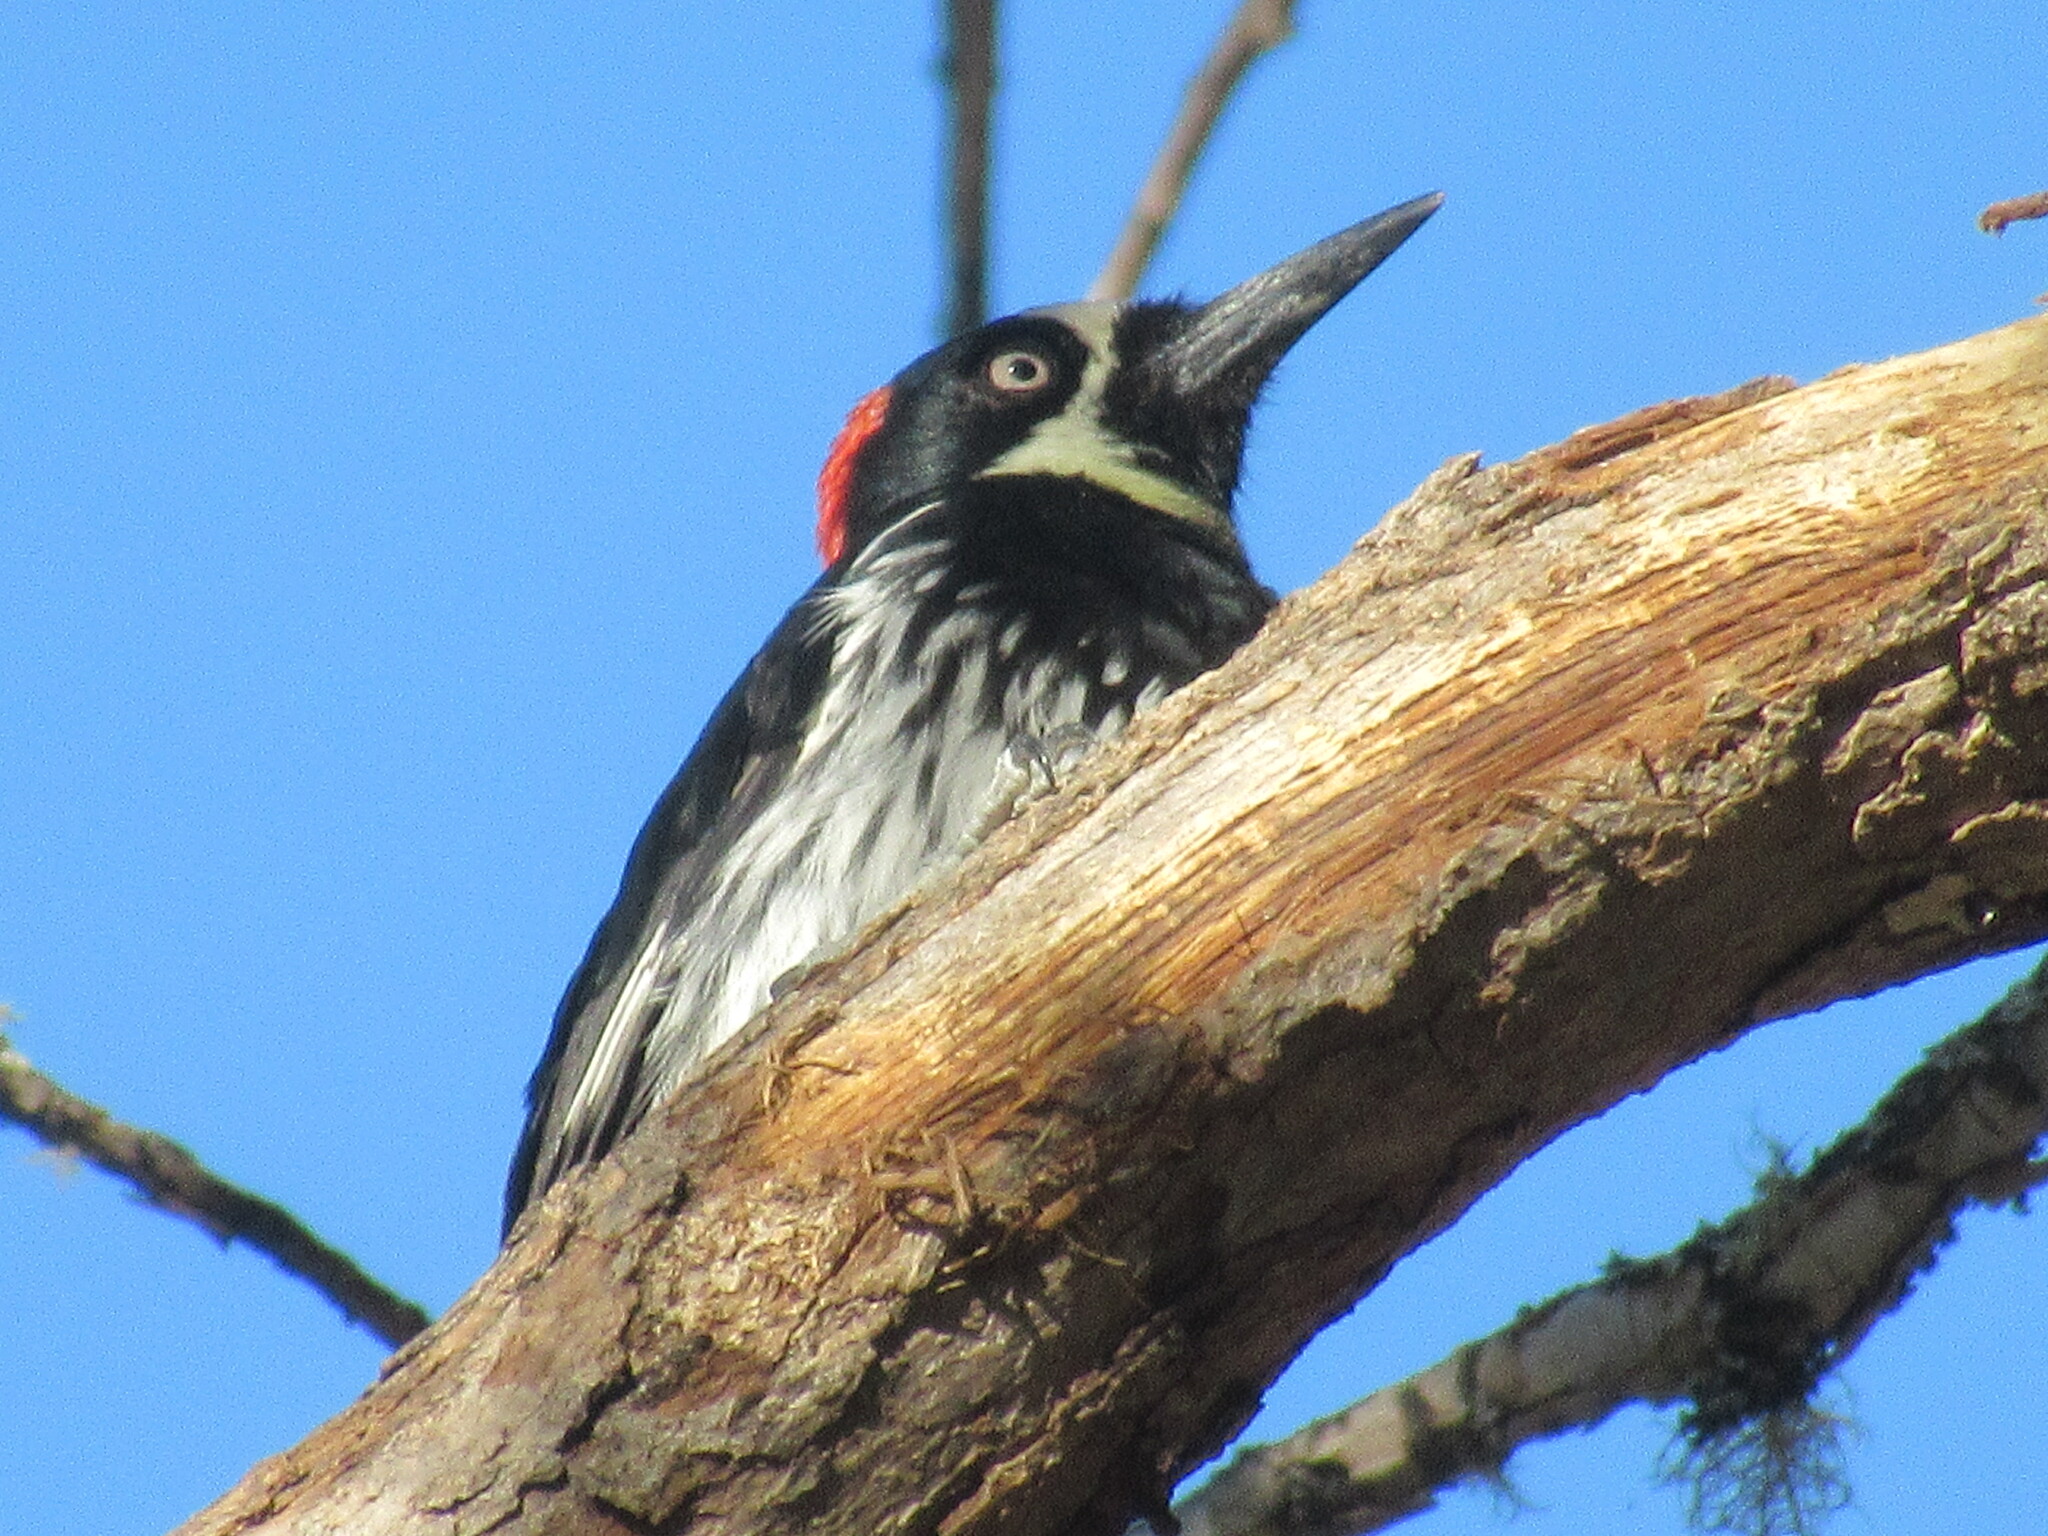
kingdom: Animalia
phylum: Chordata
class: Aves
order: Piciformes
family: Picidae
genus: Melanerpes
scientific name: Melanerpes formicivorus
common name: Acorn woodpecker
